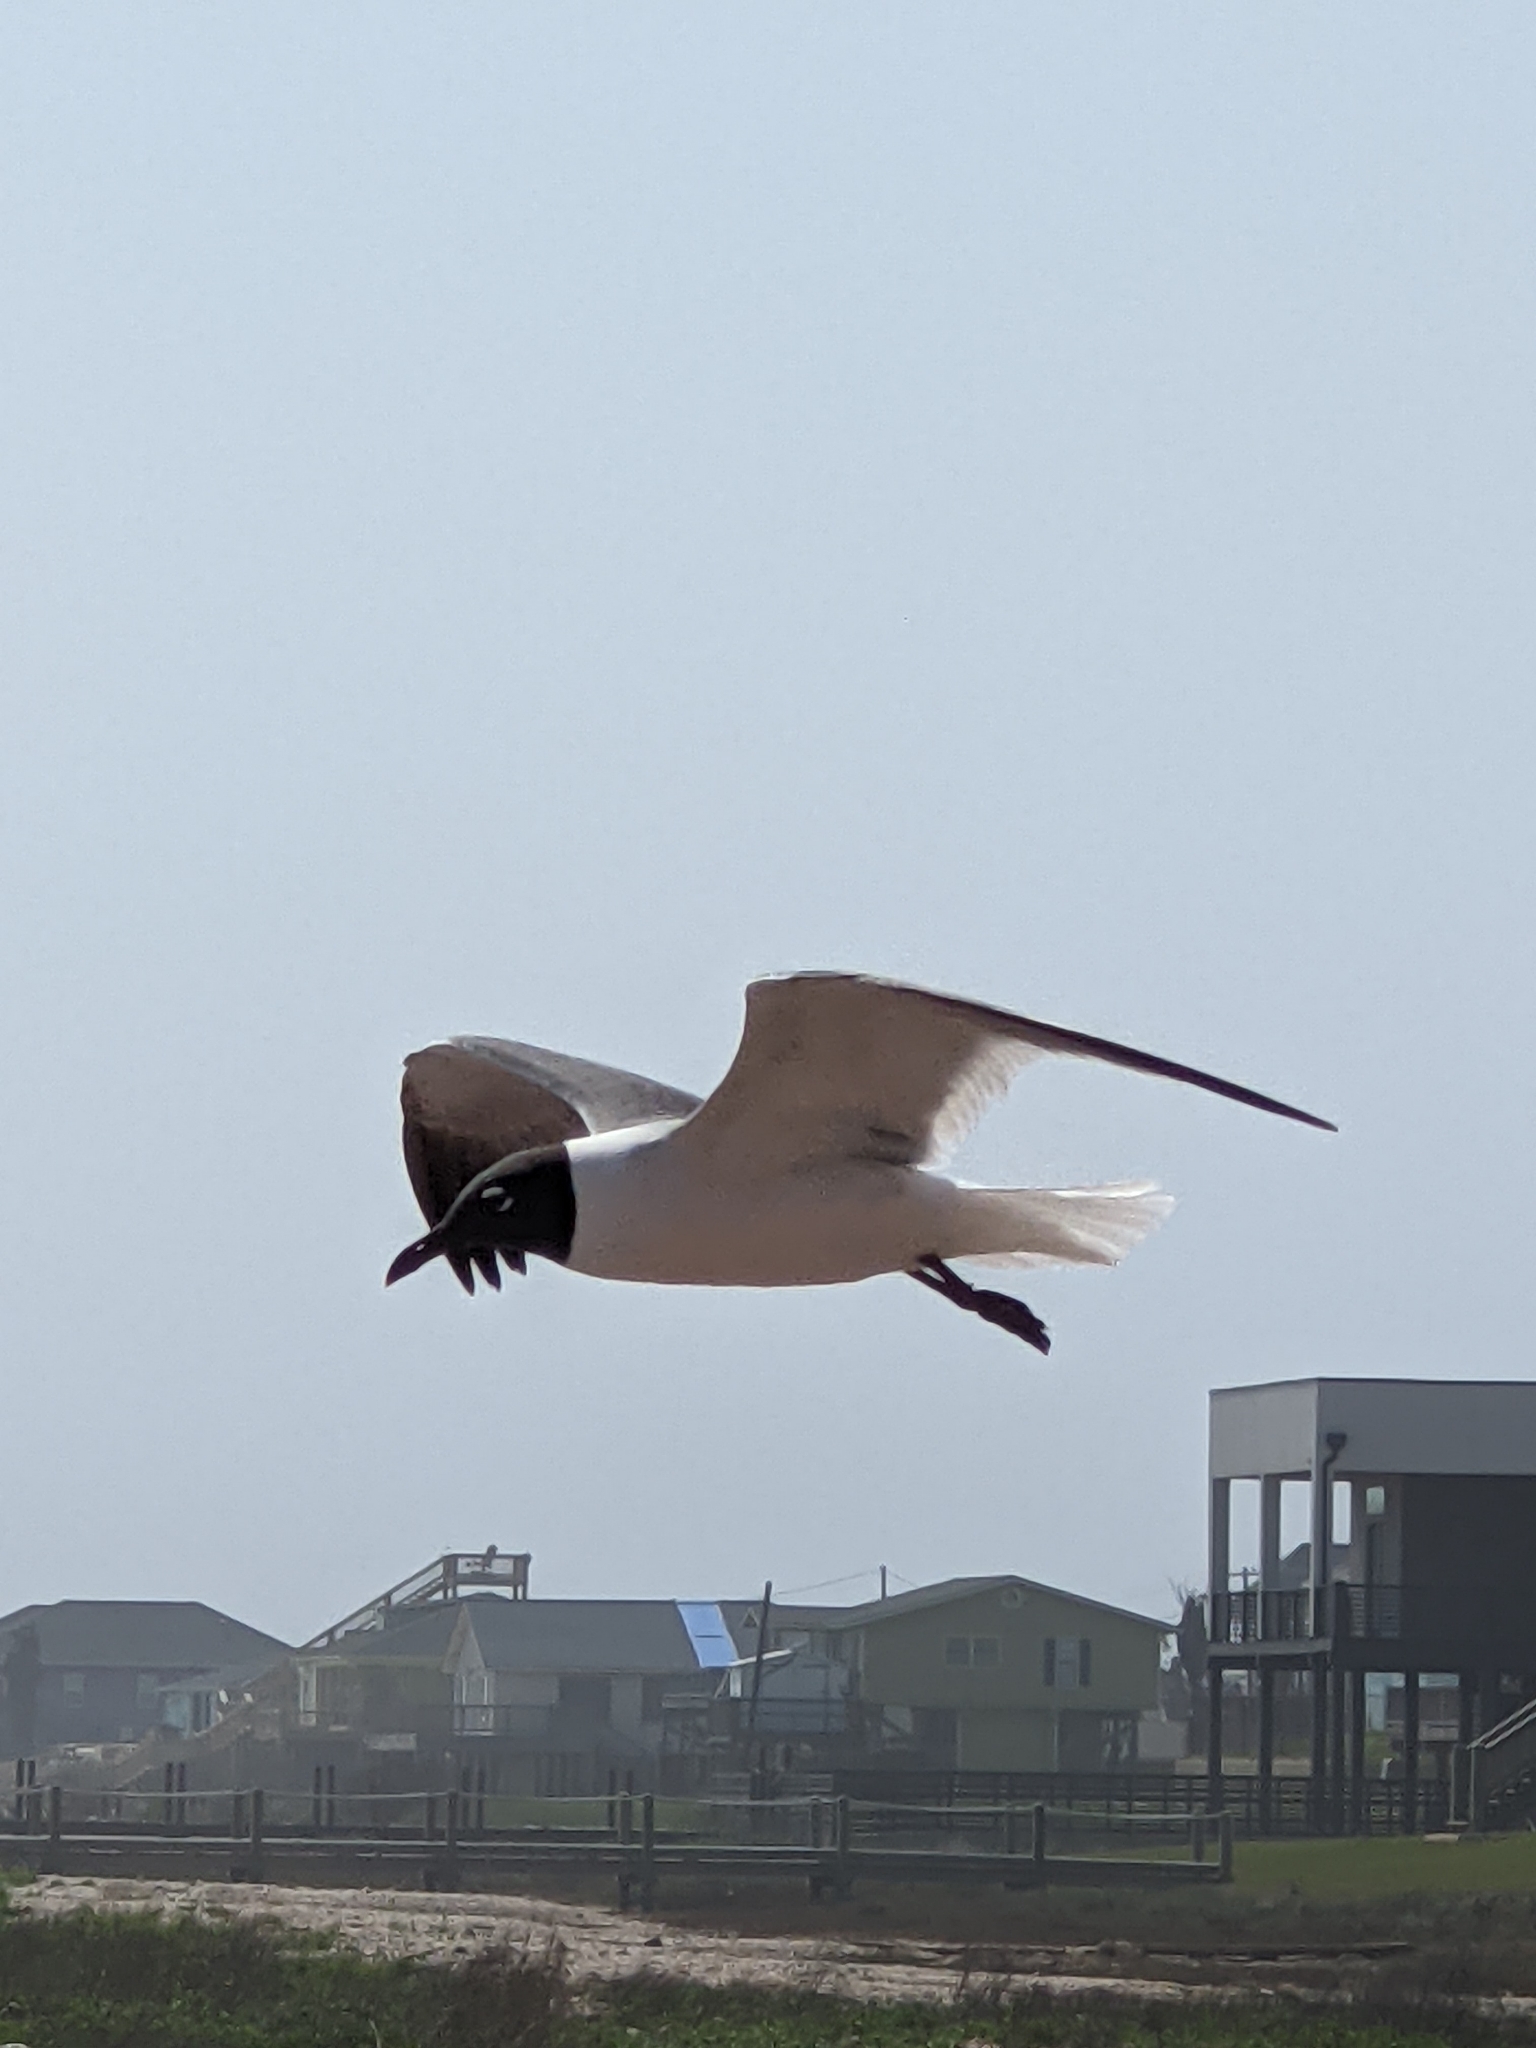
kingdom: Animalia
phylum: Chordata
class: Aves
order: Charadriiformes
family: Laridae
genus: Leucophaeus
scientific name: Leucophaeus atricilla
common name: Laughing gull
